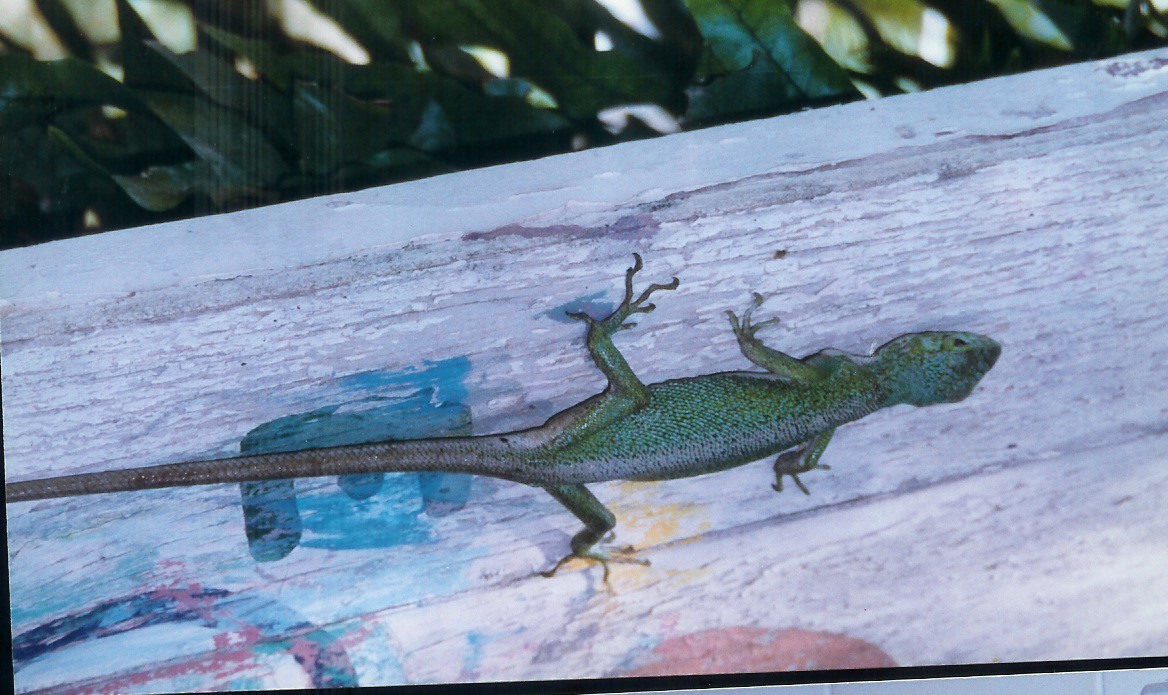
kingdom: Animalia
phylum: Chordata
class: Squamata
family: Polychrotidae
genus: Polychrus
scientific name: Polychrus marmoratus
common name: Many-colored bush anole
